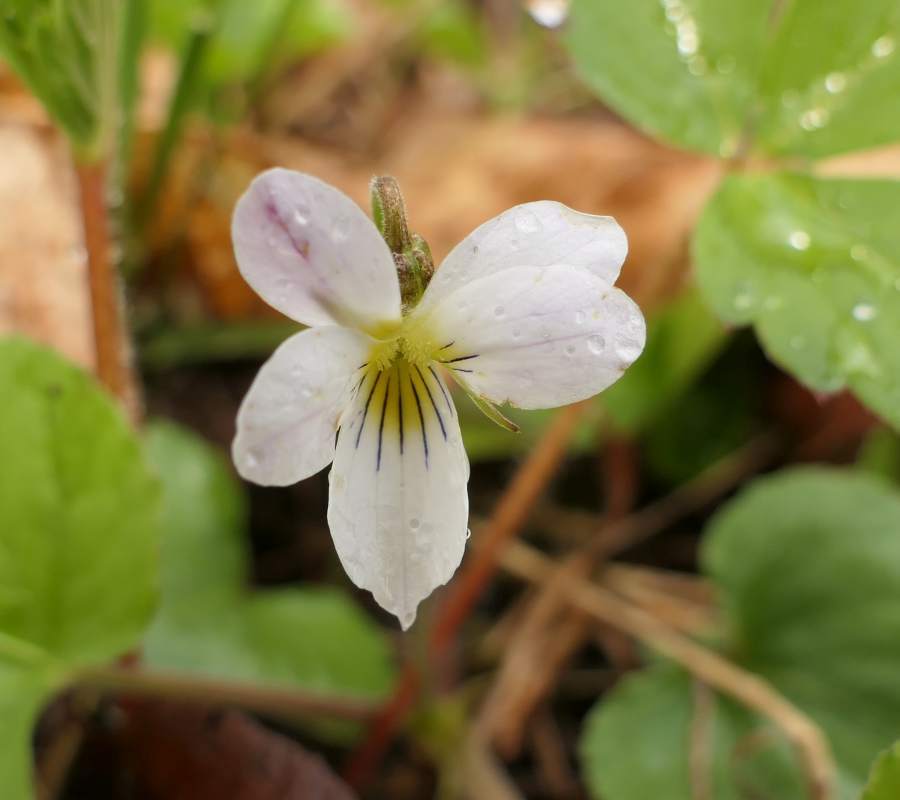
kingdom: Plantae
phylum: Tracheophyta
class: Magnoliopsida
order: Malpighiales
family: Violaceae
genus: Viola
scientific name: Viola canadensis
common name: Canada violet
